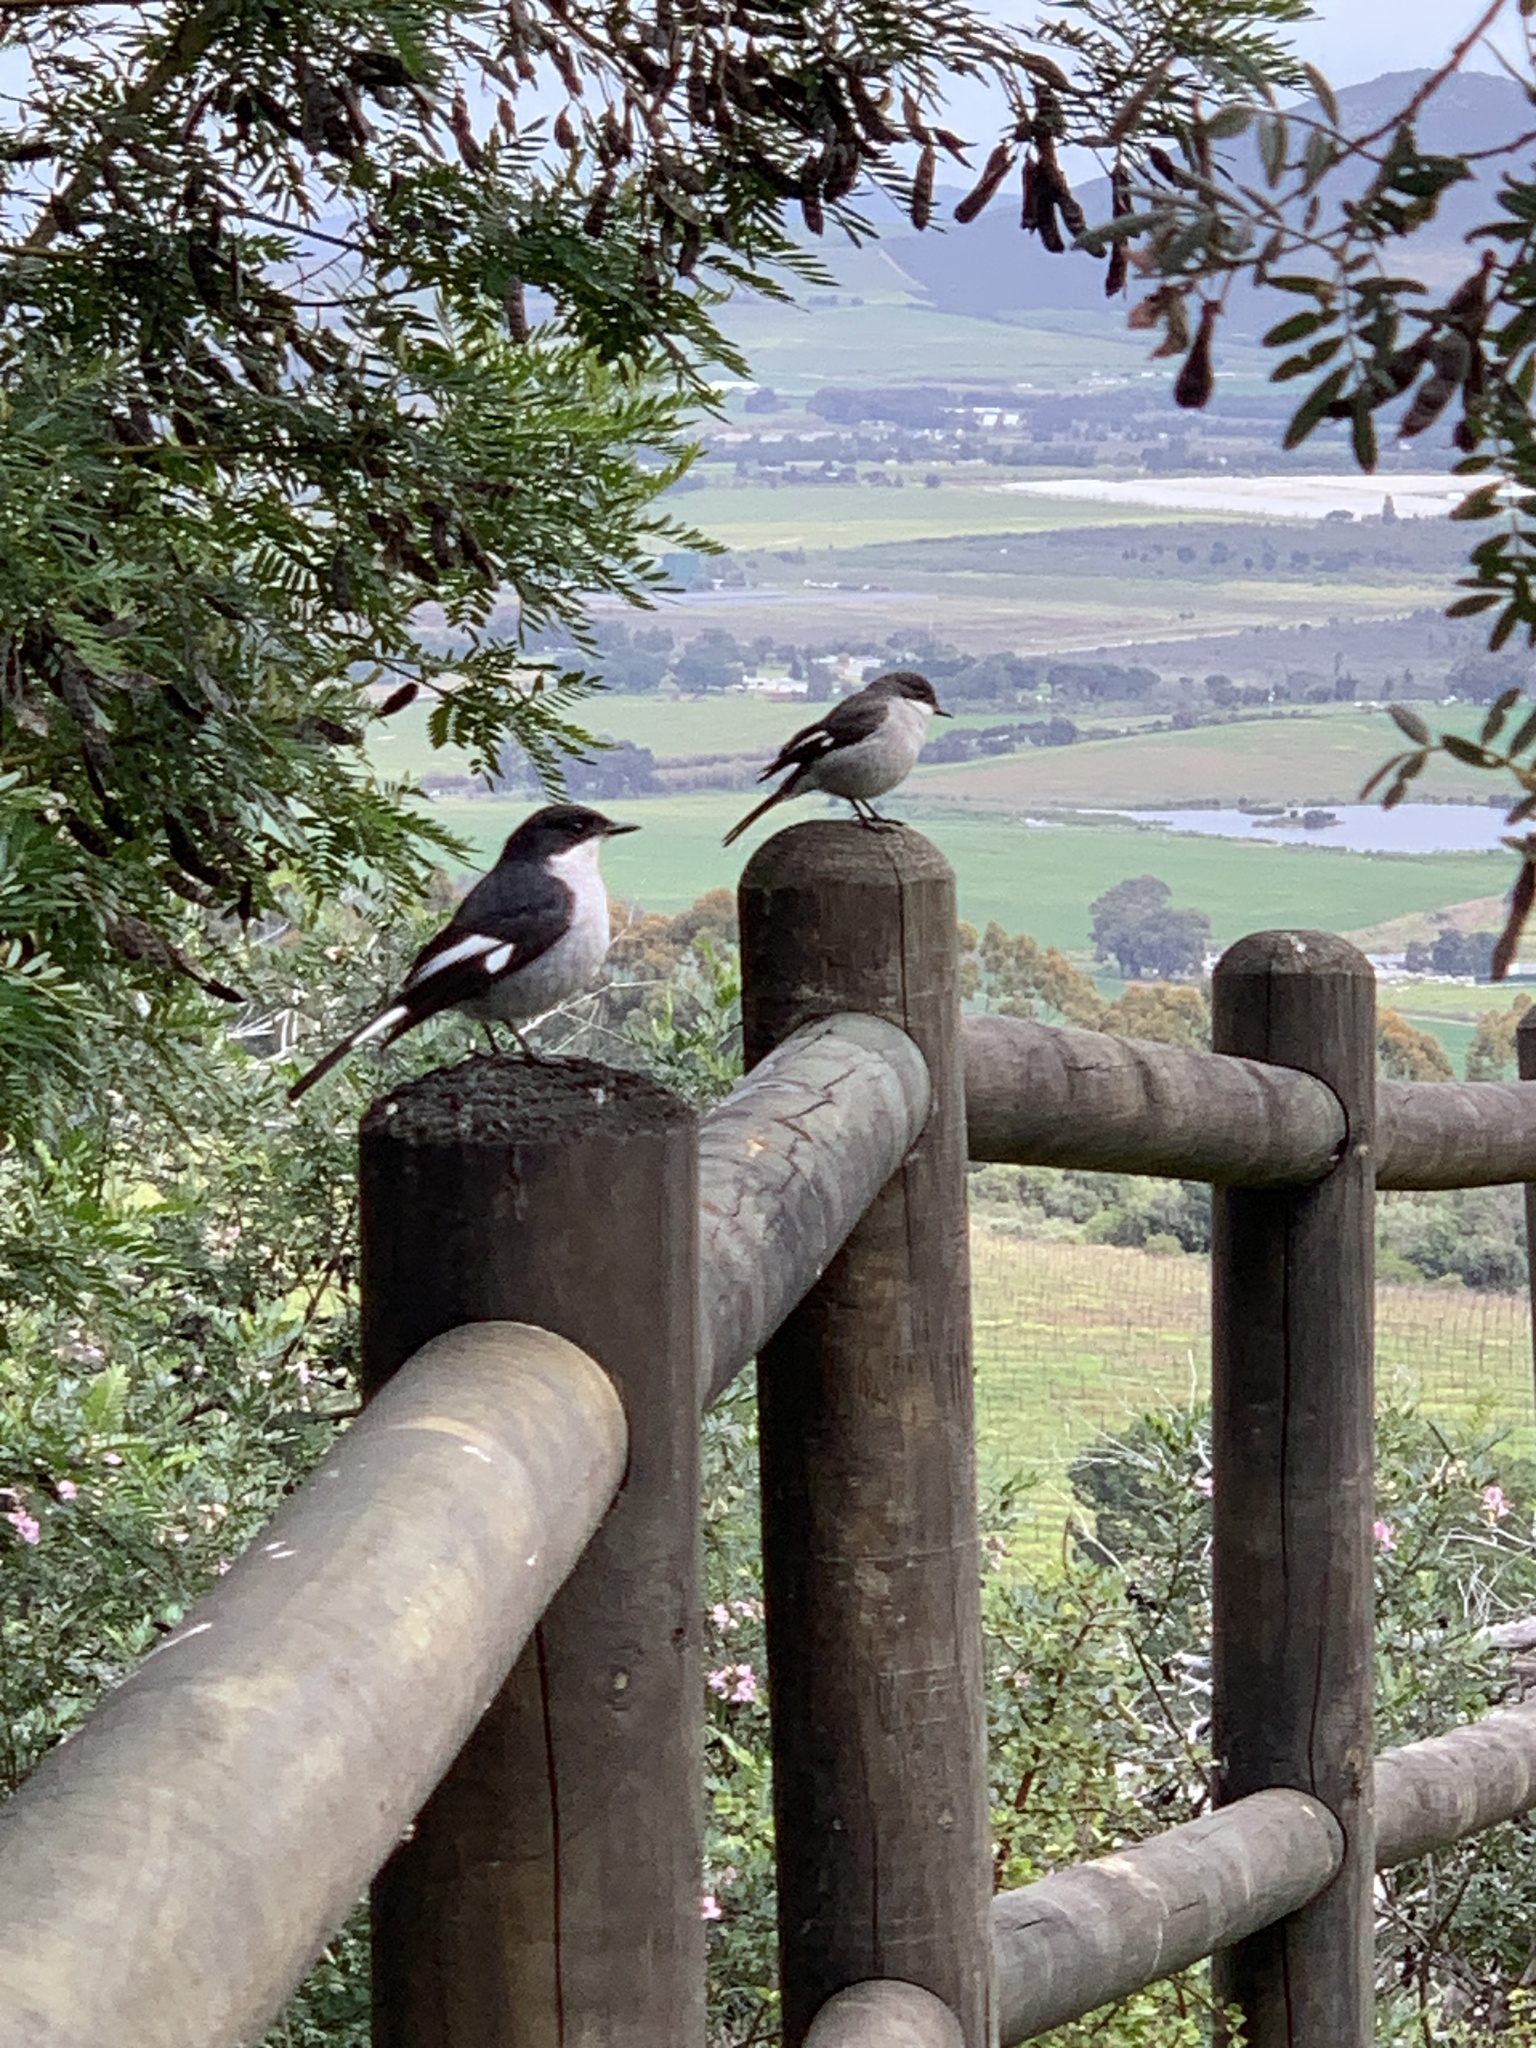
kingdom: Animalia
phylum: Chordata
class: Aves
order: Passeriformes
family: Muscicapidae
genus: Sigelus
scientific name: Sigelus silens
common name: Fiscal flycatcher
